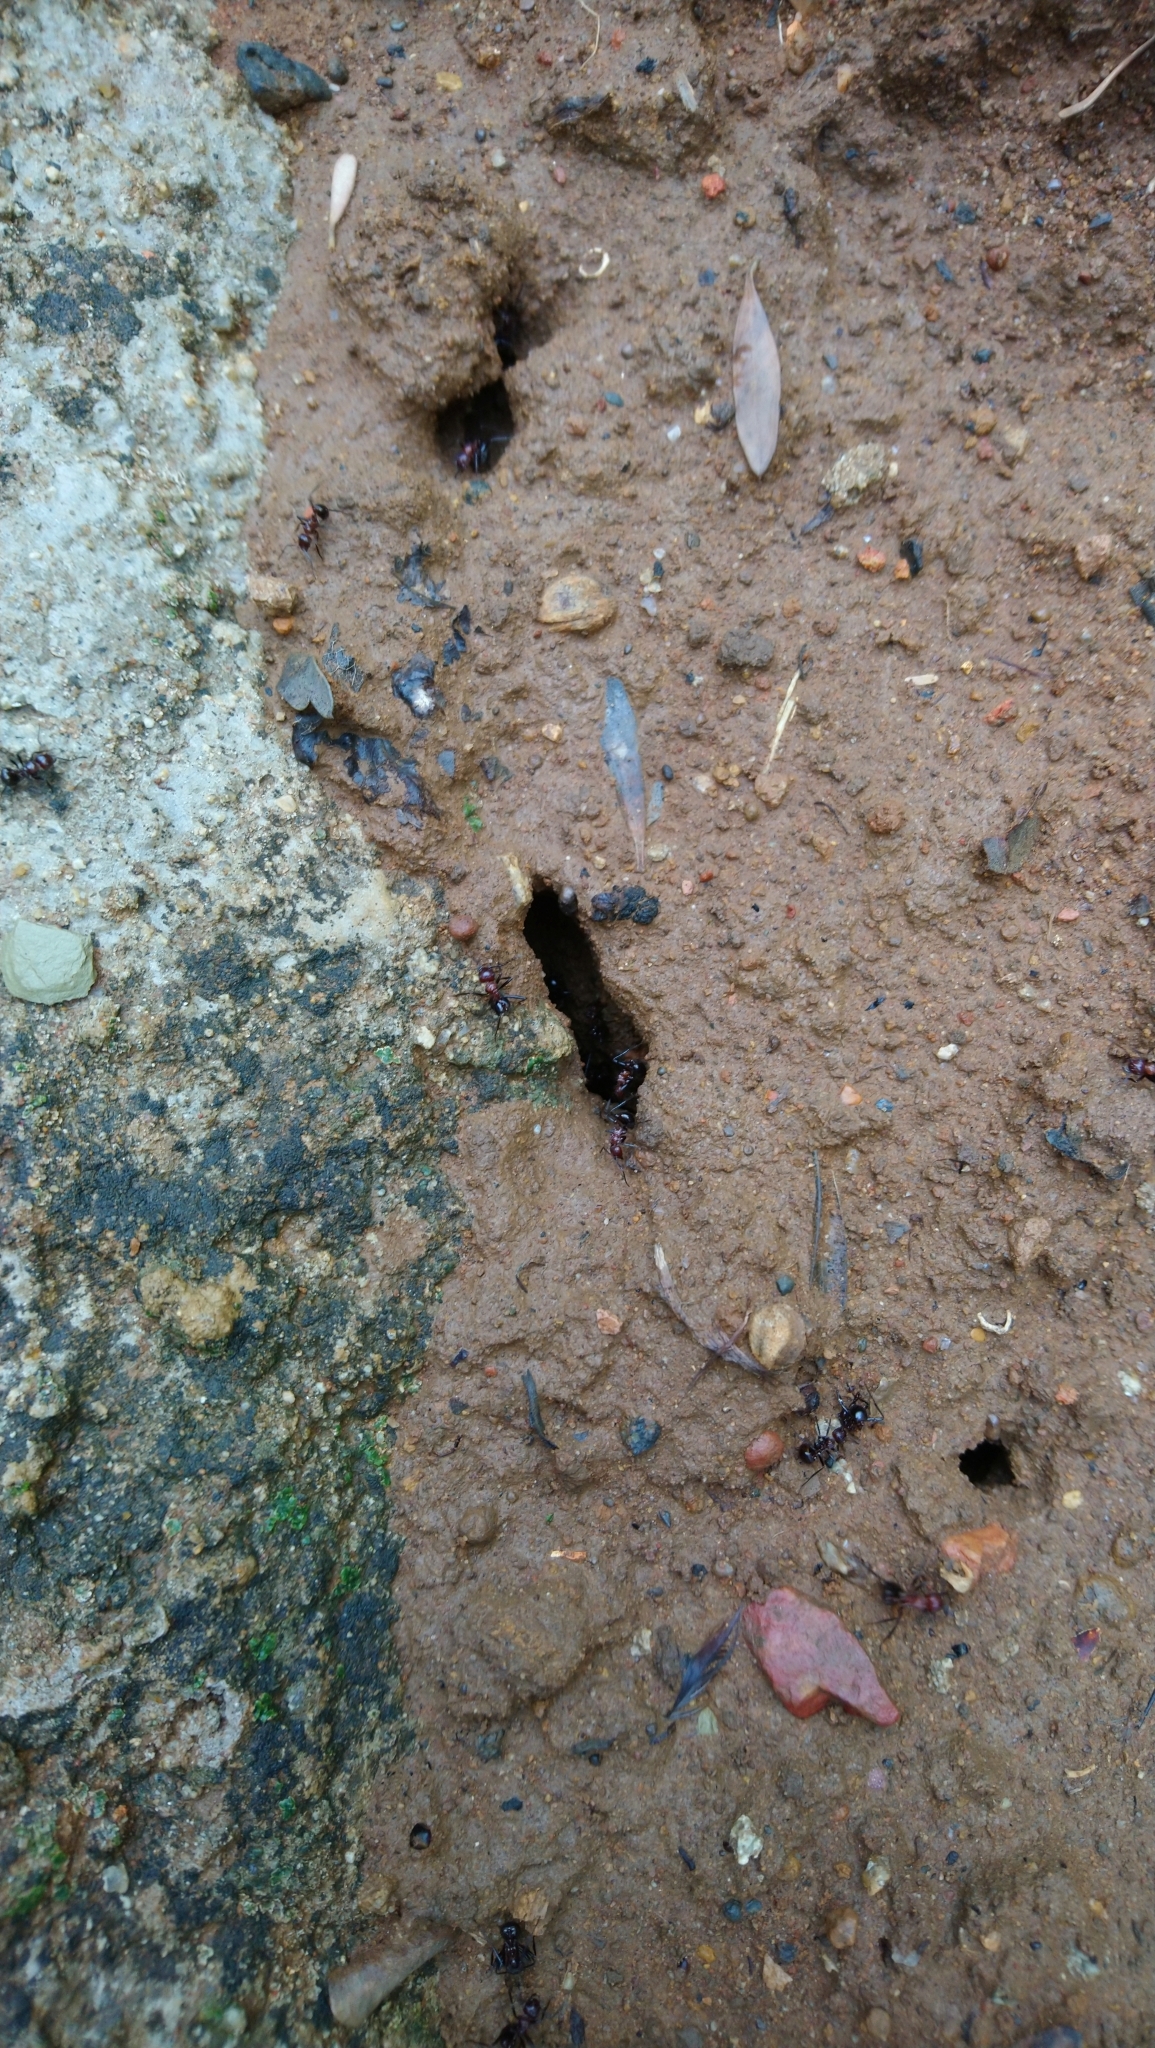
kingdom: Animalia
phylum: Arthropoda
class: Insecta
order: Hymenoptera
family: Formicidae
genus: Myrmicaria
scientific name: Myrmicaria natalensis
